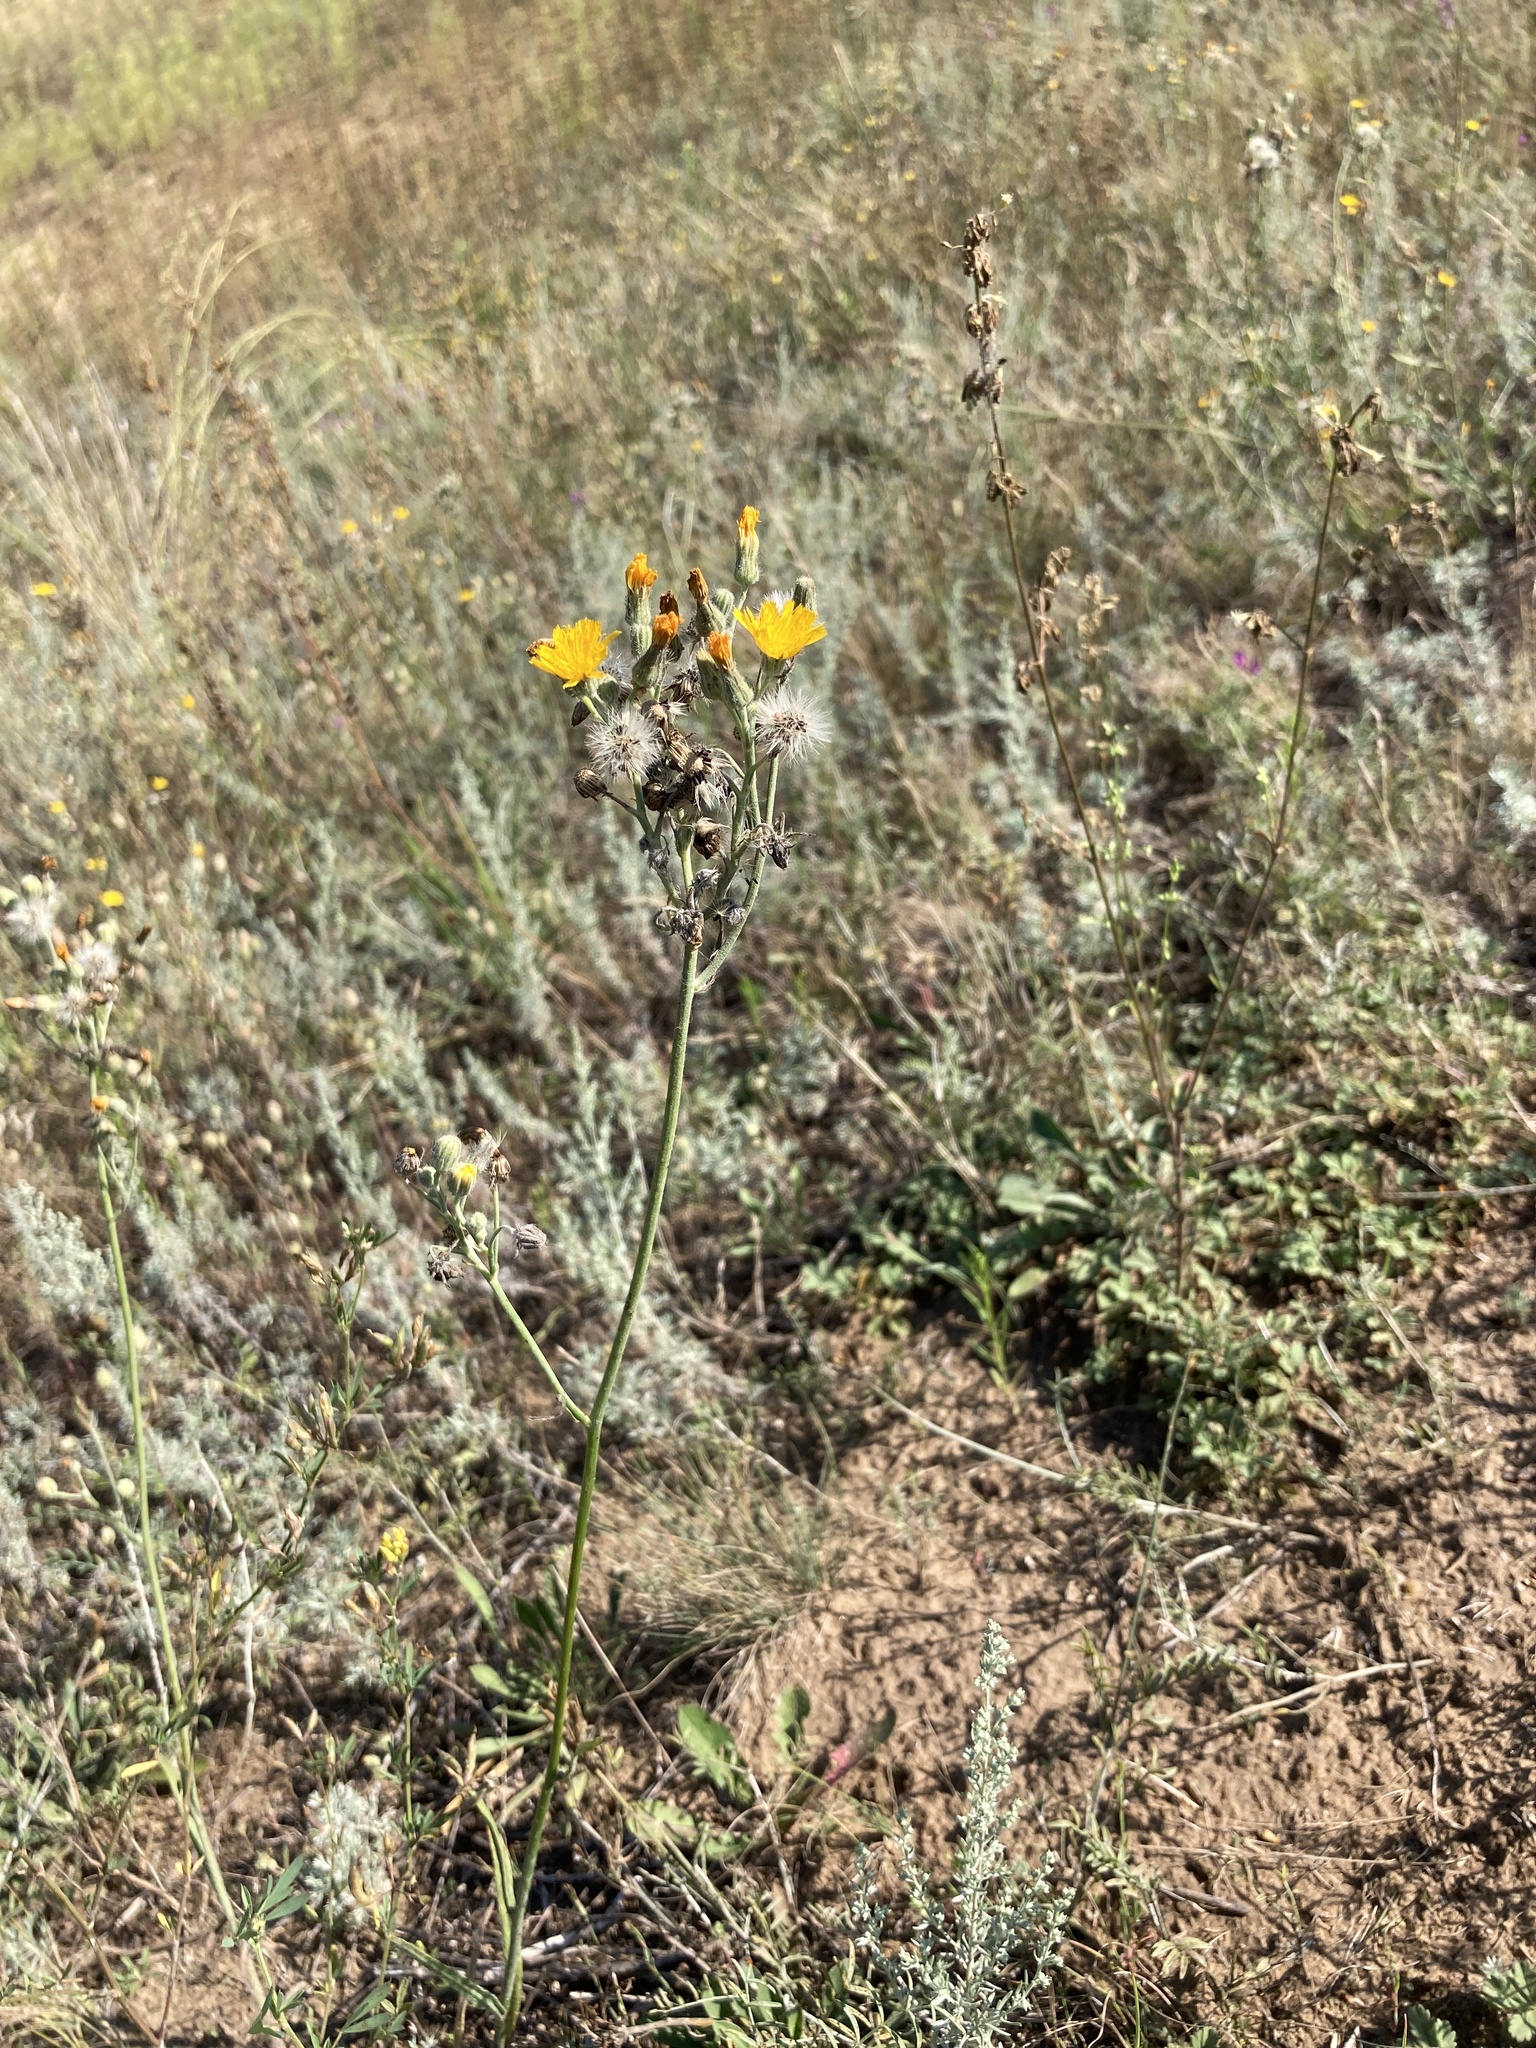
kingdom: Plantae
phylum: Tracheophyta
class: Magnoliopsida
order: Asterales
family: Asteraceae
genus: Pilosella
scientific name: Pilosella echioides
